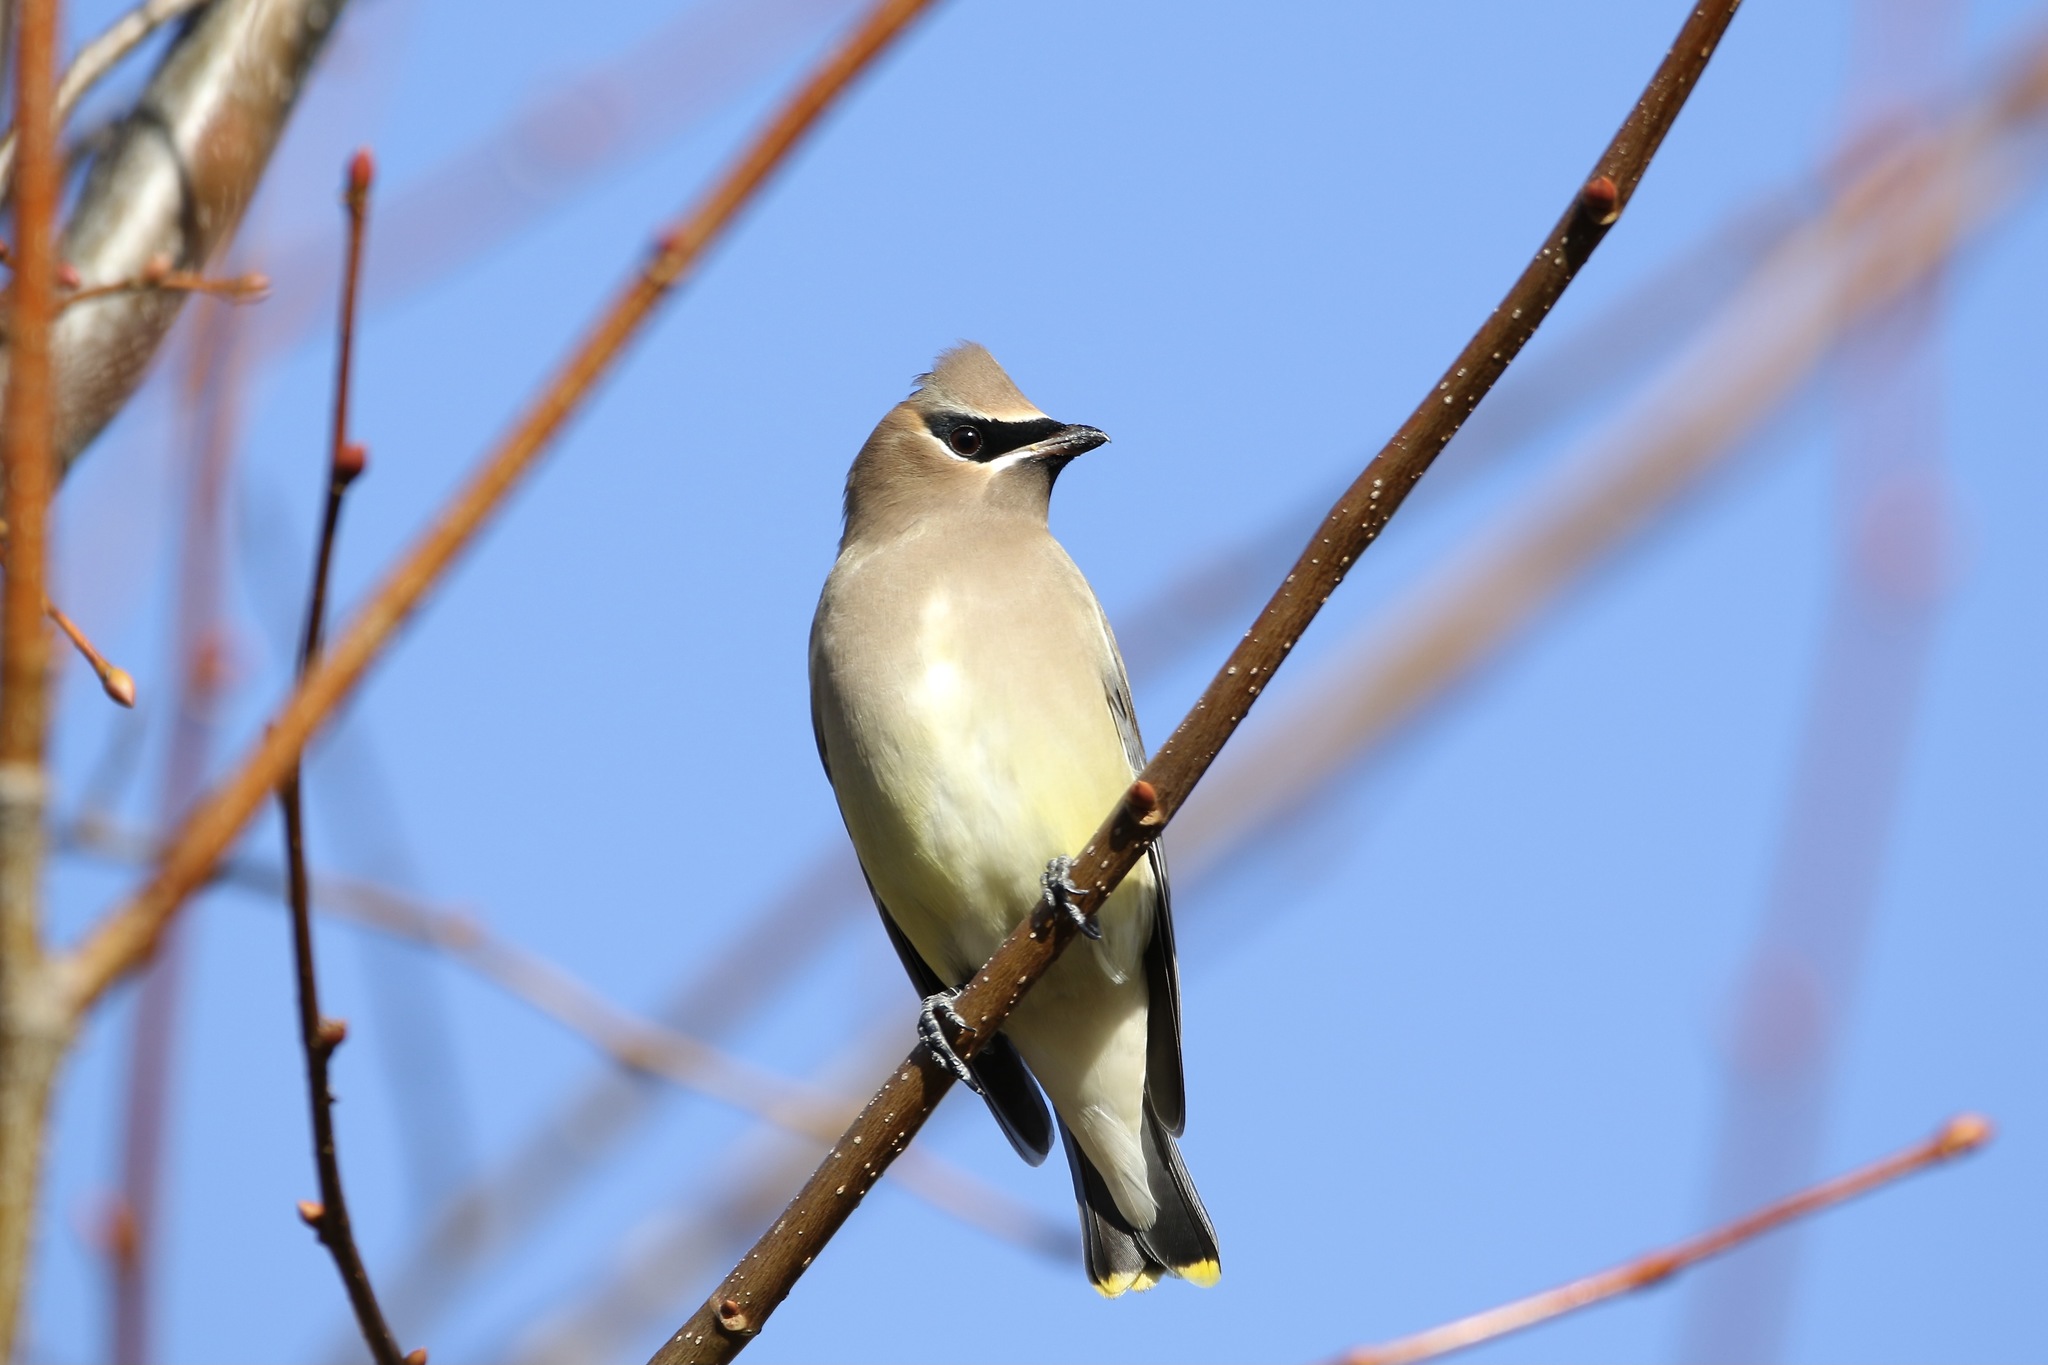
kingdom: Animalia
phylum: Chordata
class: Aves
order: Passeriformes
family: Bombycillidae
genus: Bombycilla
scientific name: Bombycilla cedrorum
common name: Cedar waxwing
